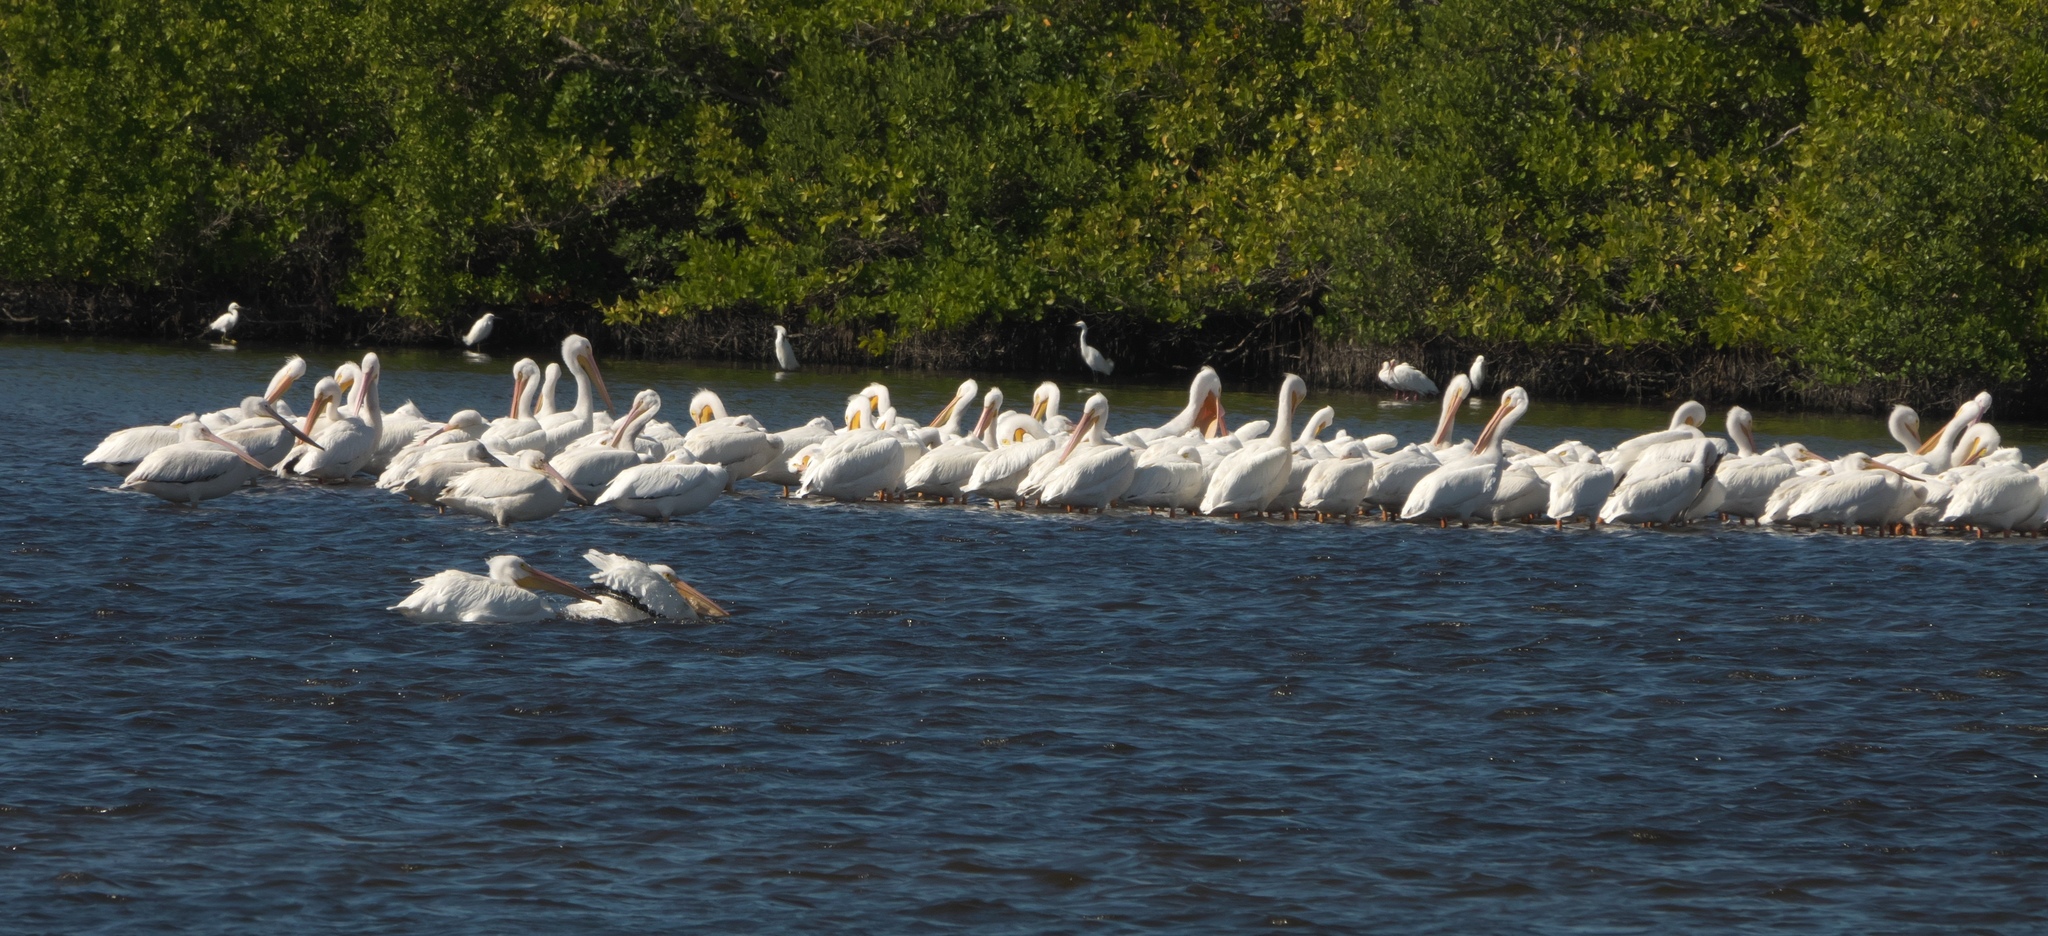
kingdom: Animalia
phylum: Chordata
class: Aves
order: Pelecaniformes
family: Pelecanidae
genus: Pelecanus
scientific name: Pelecanus erythrorhynchos
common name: American white pelican
